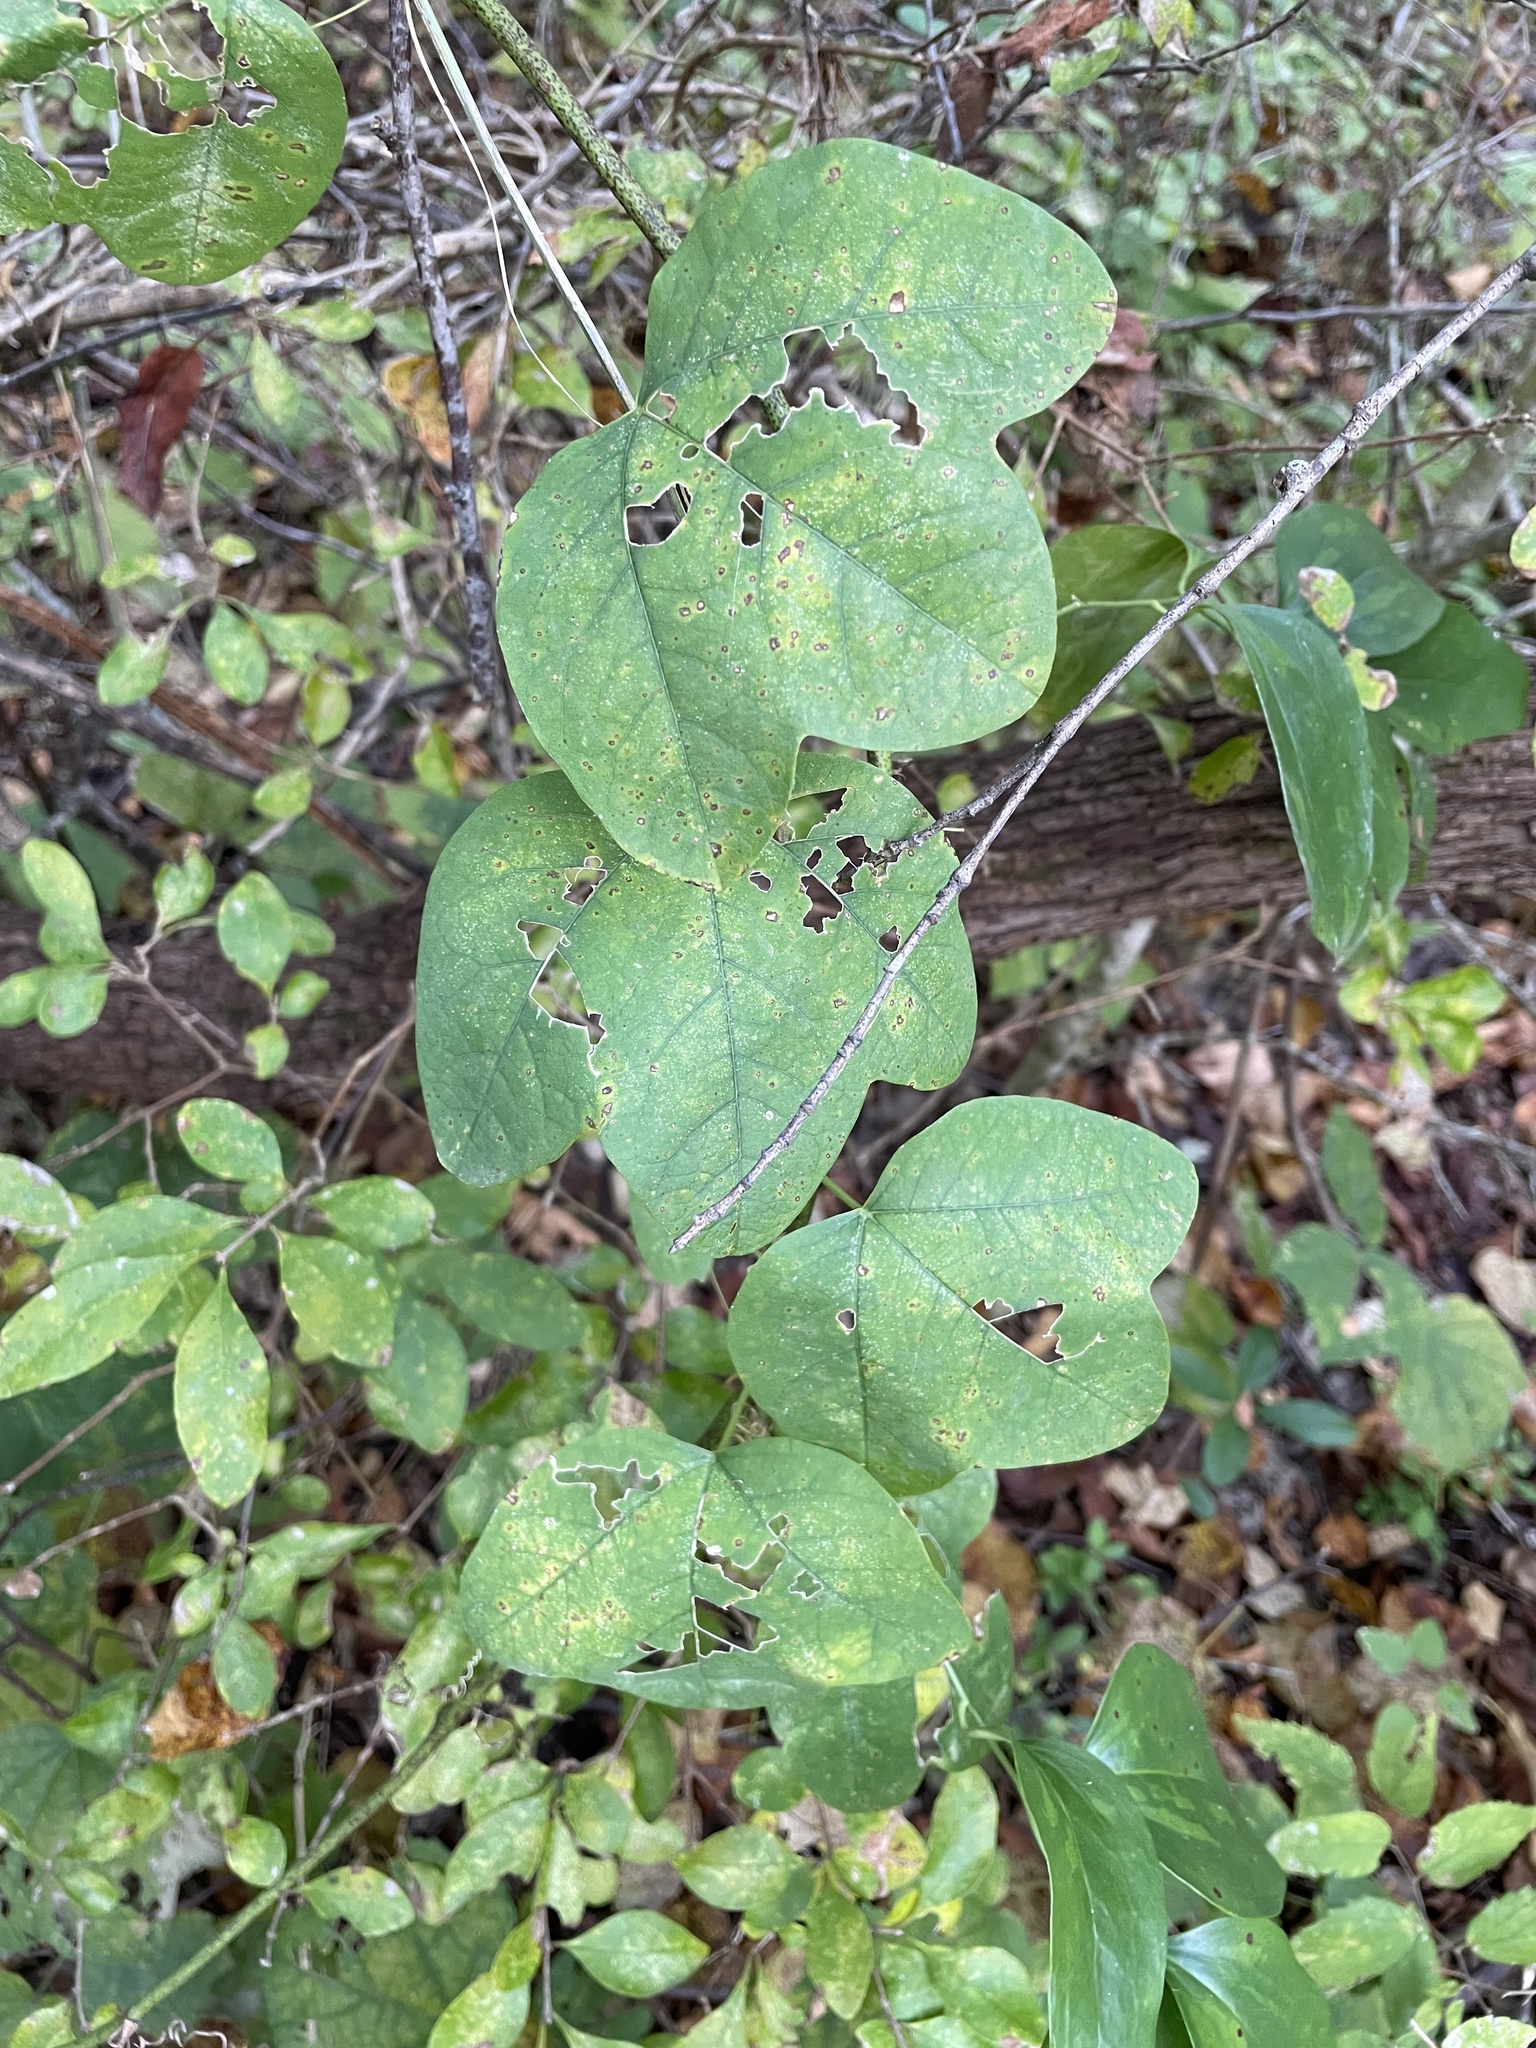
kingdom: Plantae
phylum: Tracheophyta
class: Magnoliopsida
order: Malpighiales
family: Passifloraceae
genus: Passiflora
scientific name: Passiflora lutea
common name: Yellow passionflower
